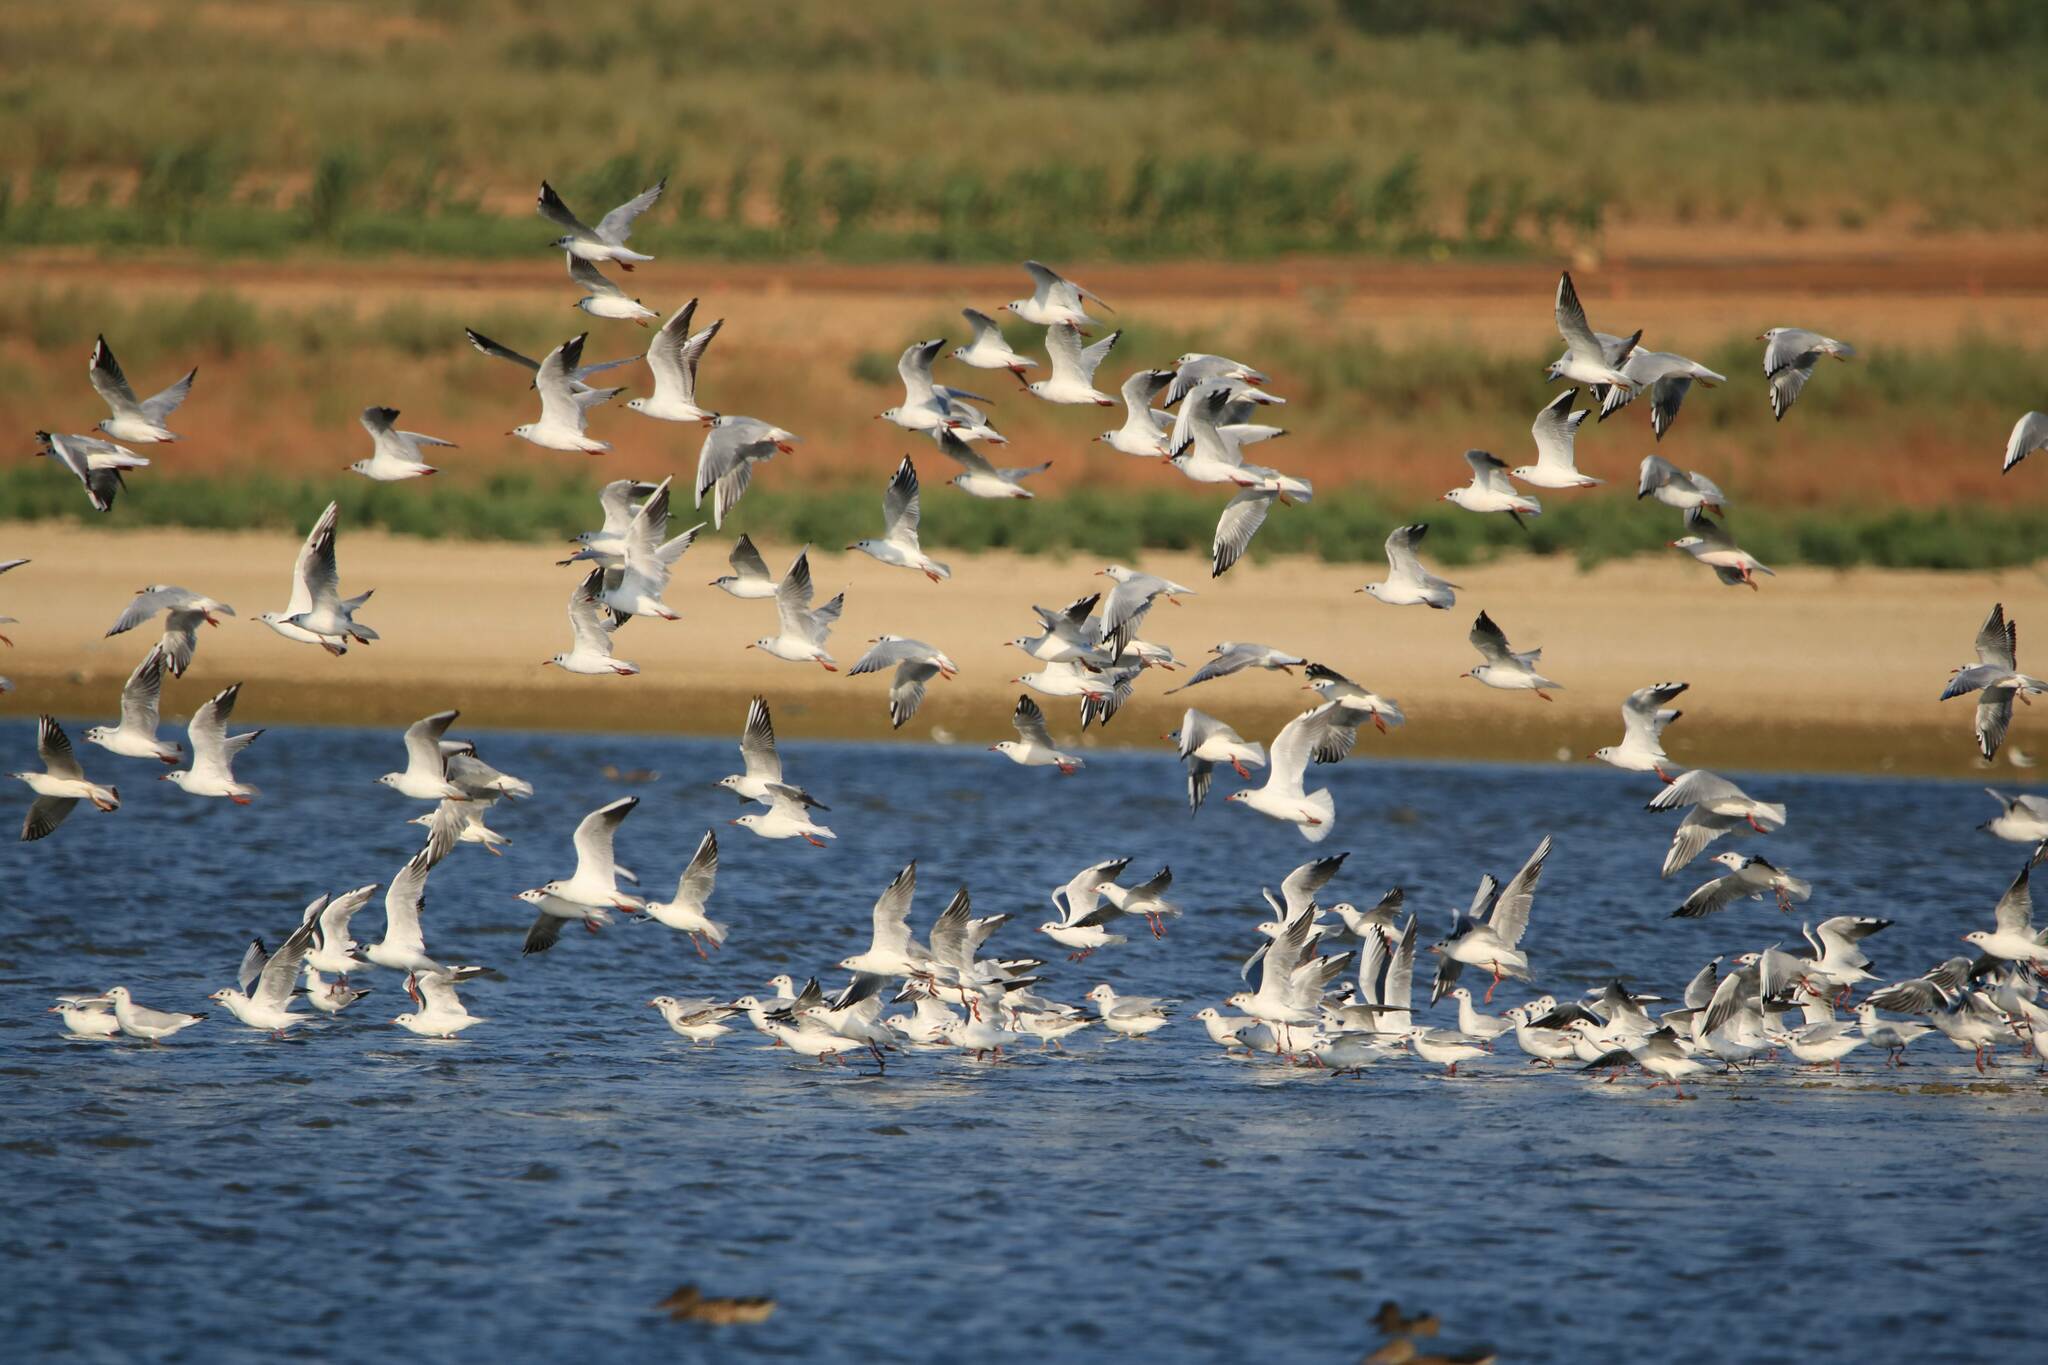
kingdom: Animalia
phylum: Chordata
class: Aves
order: Charadriiformes
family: Laridae
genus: Chroicocephalus
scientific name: Chroicocephalus ridibundus
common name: Black-headed gull
